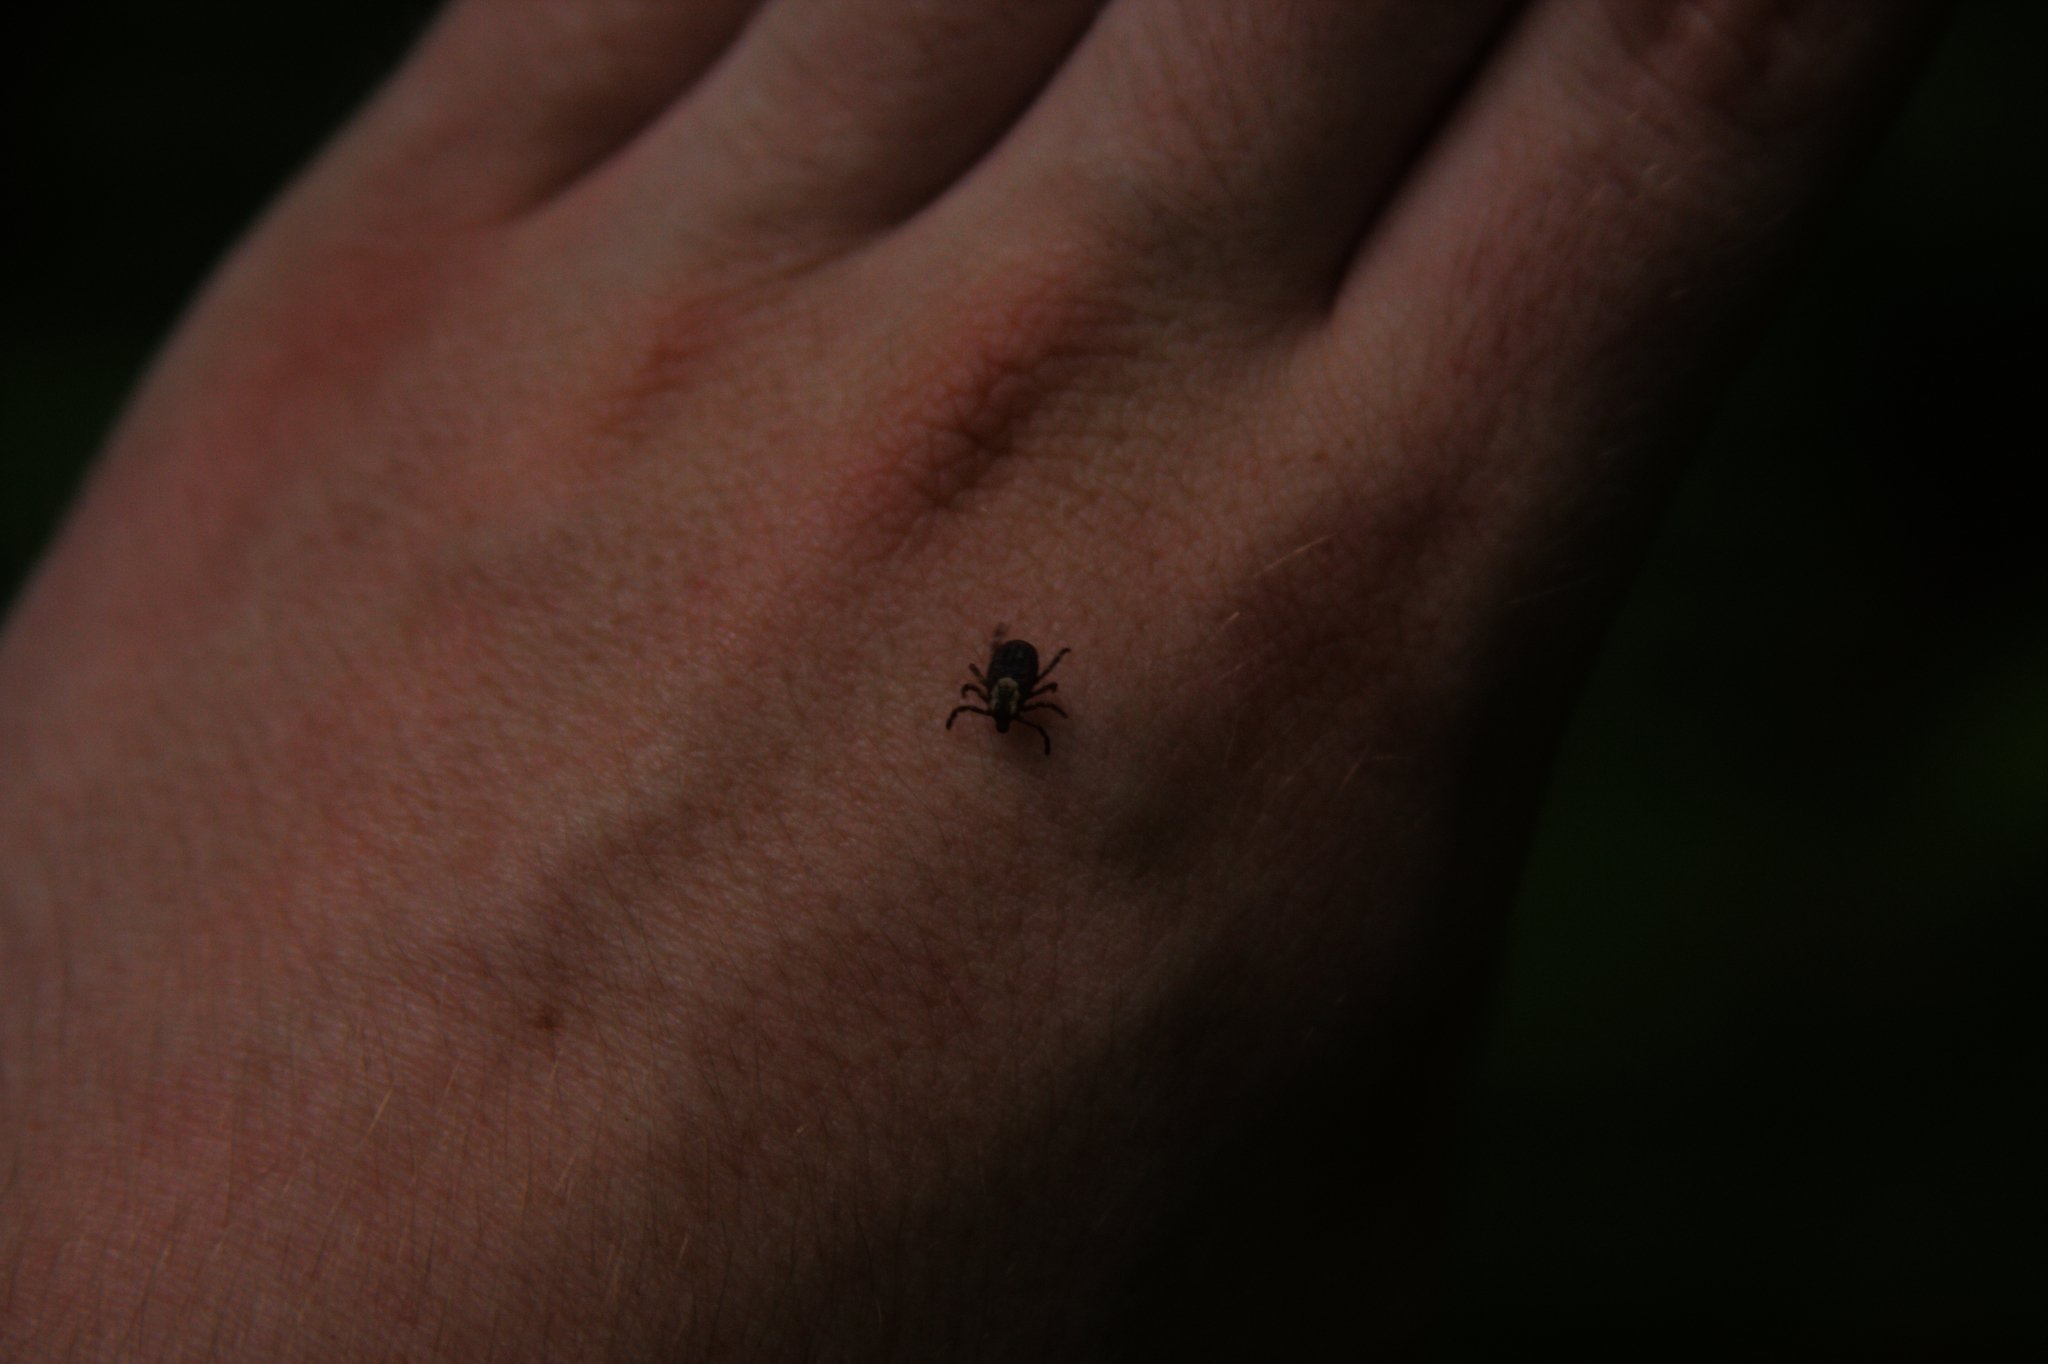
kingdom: Animalia
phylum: Arthropoda
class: Arachnida
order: Ixodida
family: Ixodidae
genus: Dermacentor
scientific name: Dermacentor variabilis
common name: American dog tick
